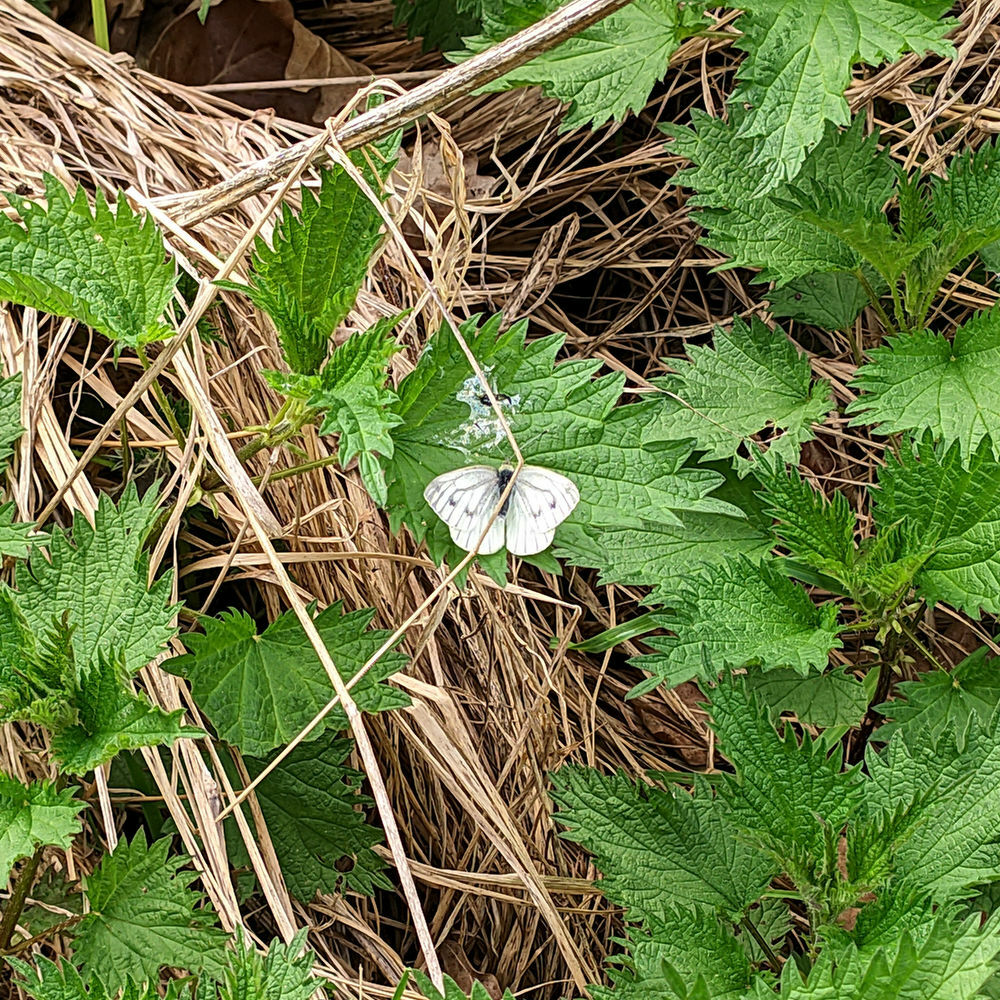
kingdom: Animalia
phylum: Arthropoda
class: Insecta
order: Lepidoptera
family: Pieridae
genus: Pieris
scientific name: Pieris napi
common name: Green-veined white
